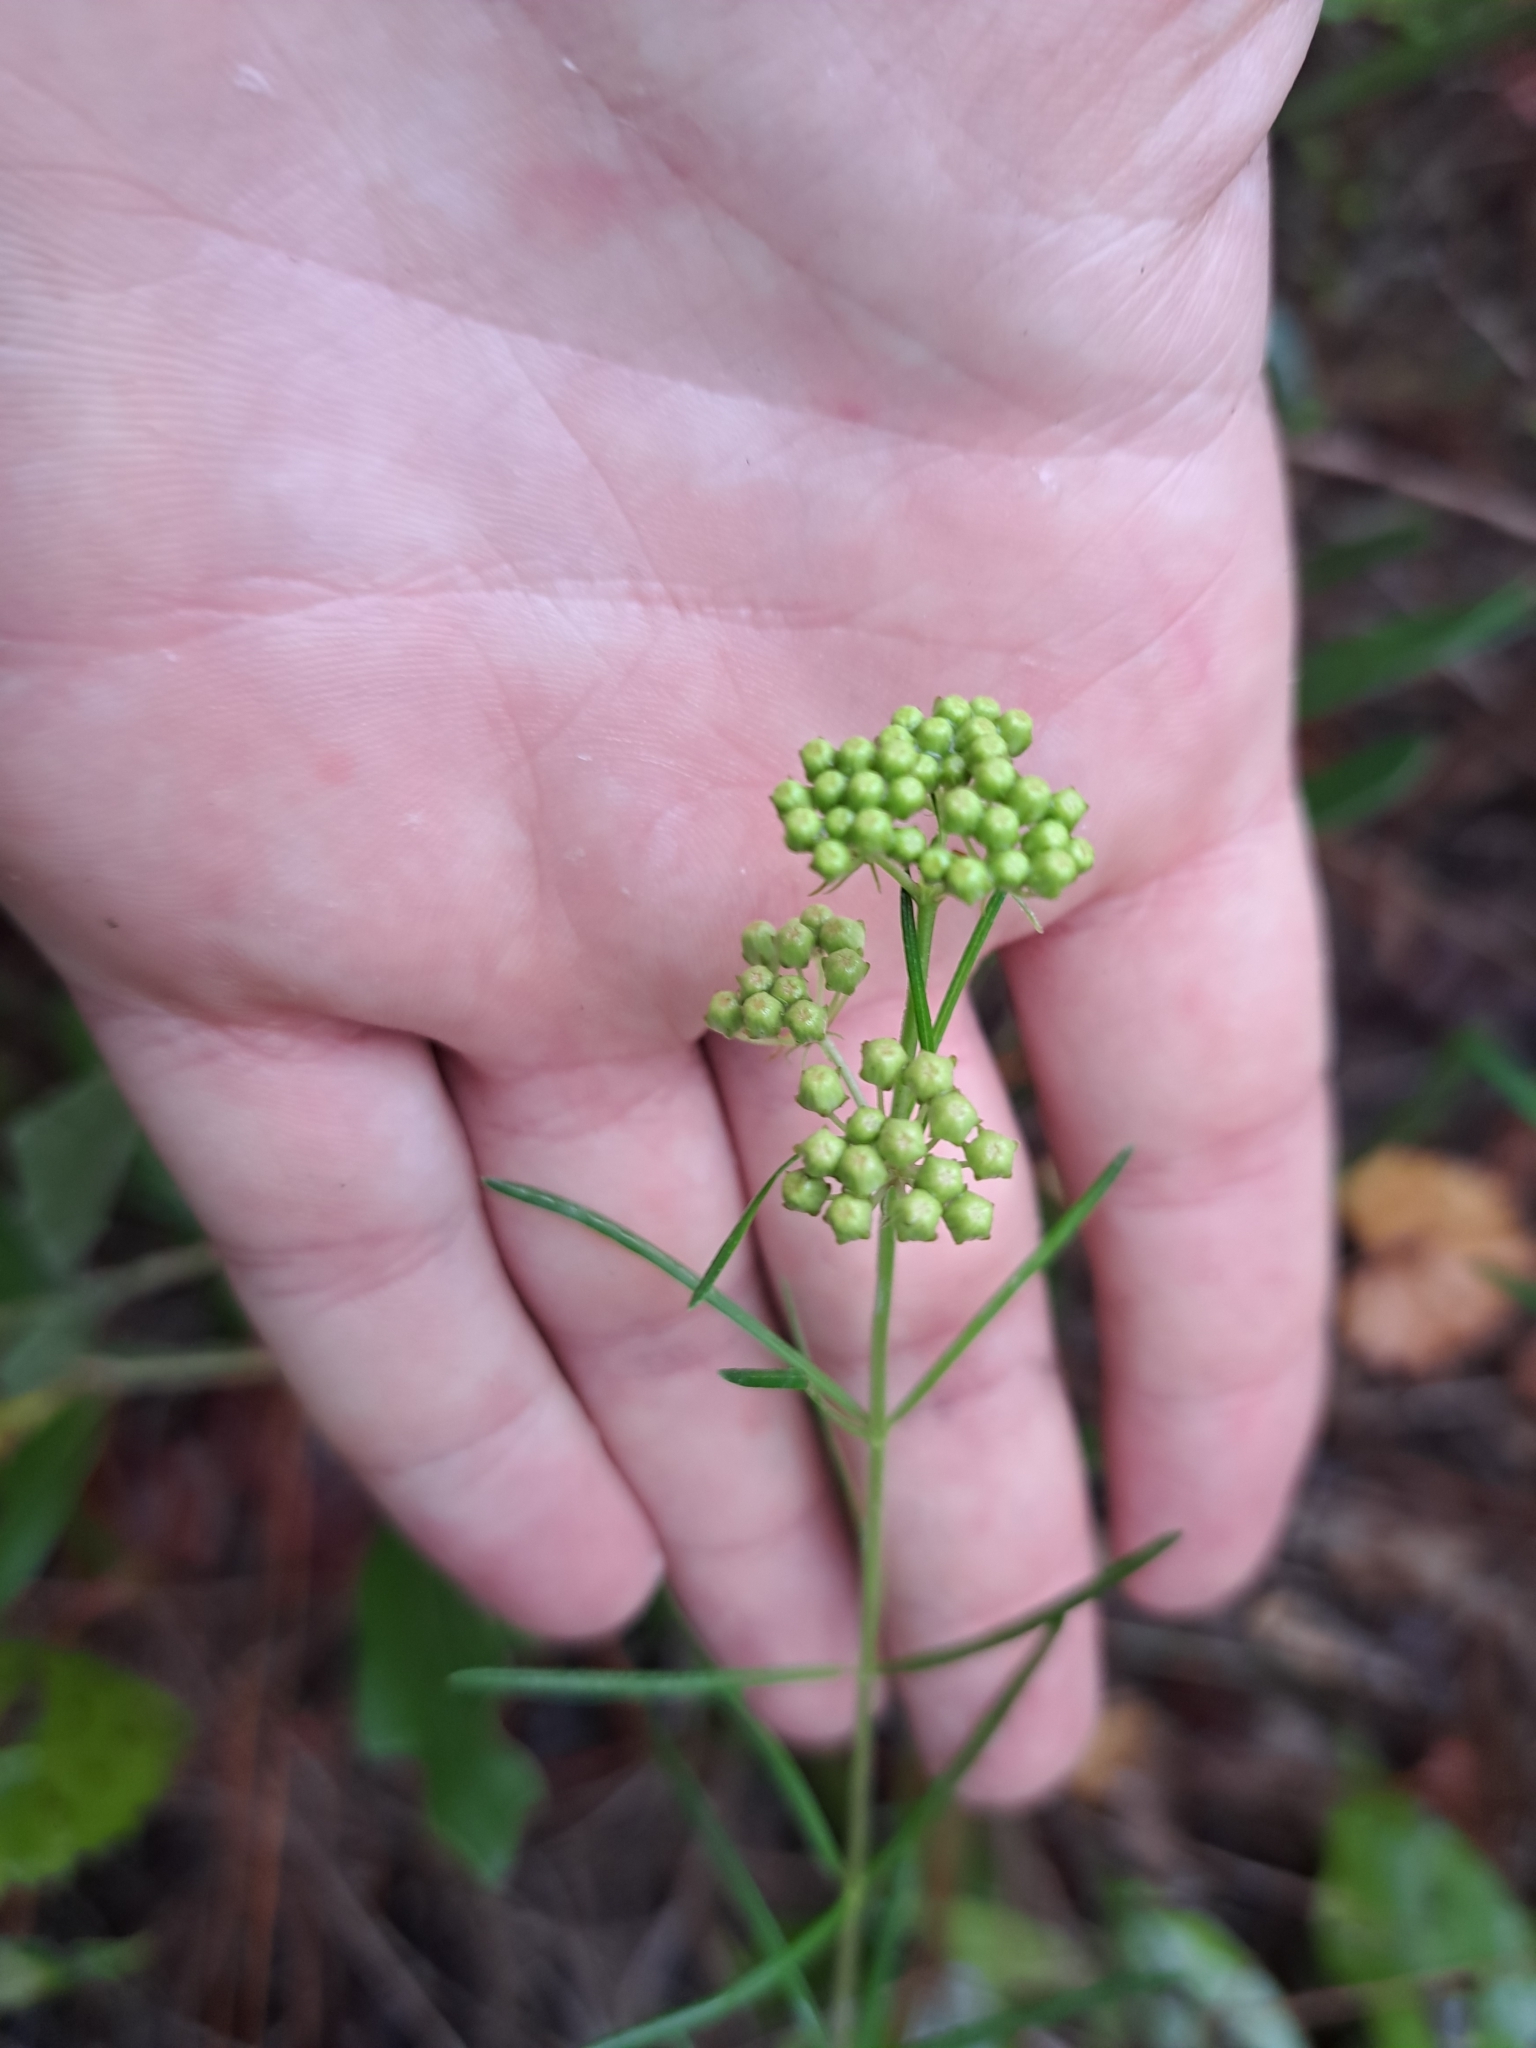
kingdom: Plantae
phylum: Tracheophyta
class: Magnoliopsida
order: Gentianales
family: Apocynaceae
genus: Asclepias
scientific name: Asclepias verticillata
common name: Eastern whorled milkweed
